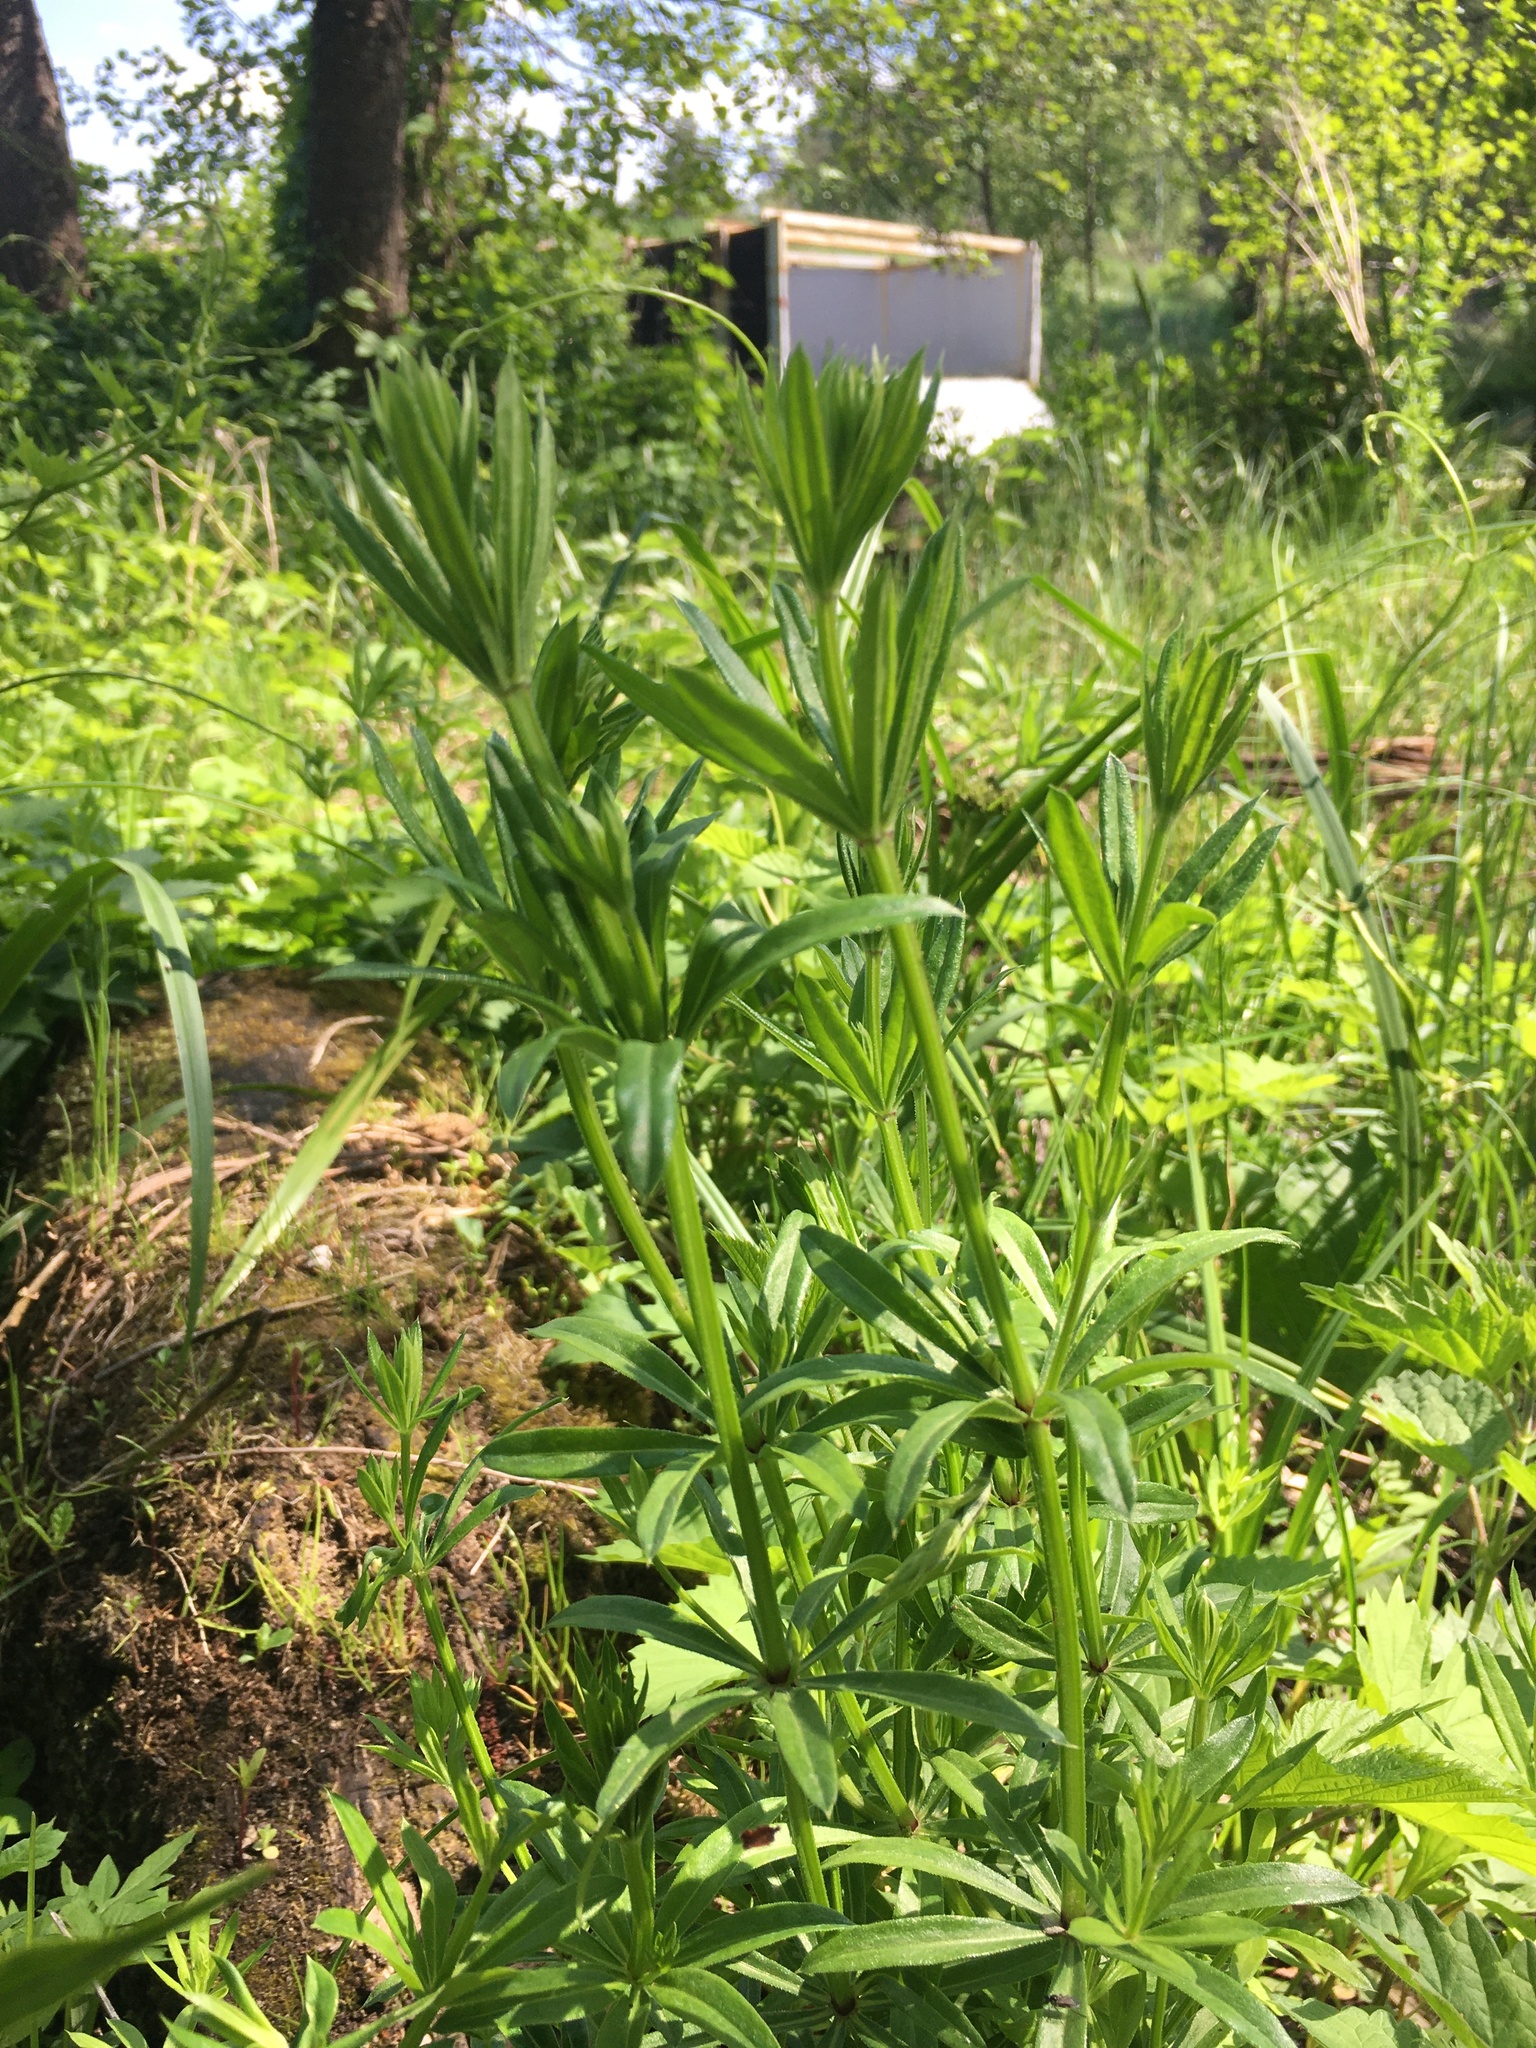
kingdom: Plantae
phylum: Tracheophyta
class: Magnoliopsida
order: Gentianales
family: Rubiaceae
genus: Galium
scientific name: Galium rivale
